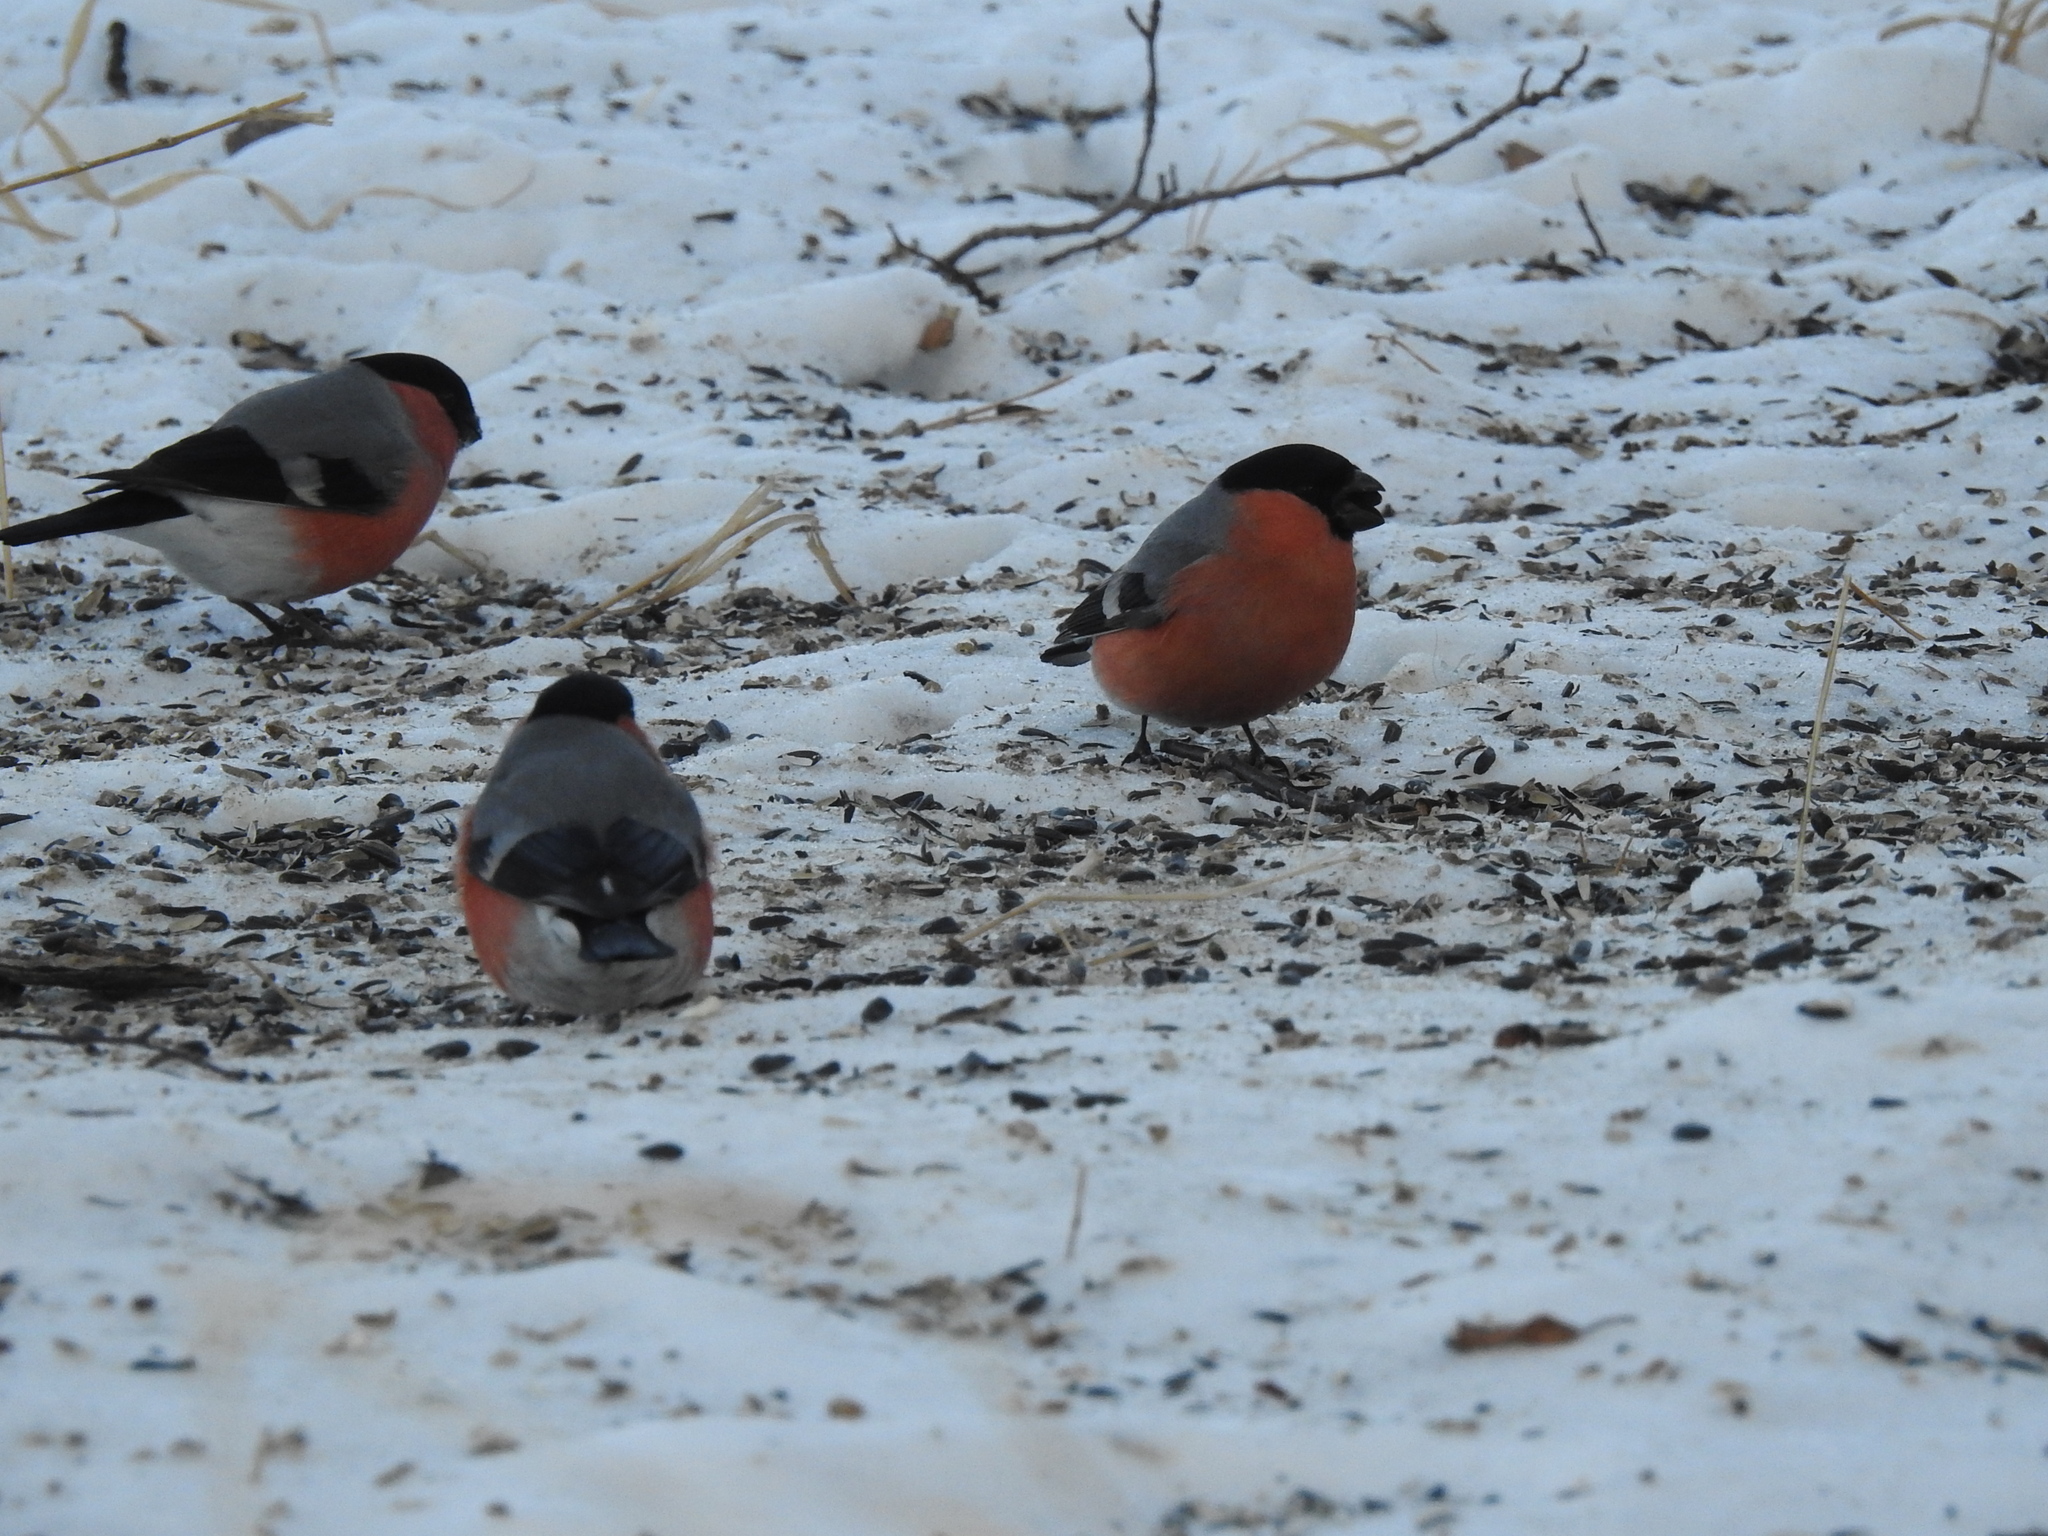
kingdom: Animalia
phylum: Chordata
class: Aves
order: Passeriformes
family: Fringillidae
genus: Pyrrhula
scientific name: Pyrrhula pyrrhula
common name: Eurasian bullfinch
